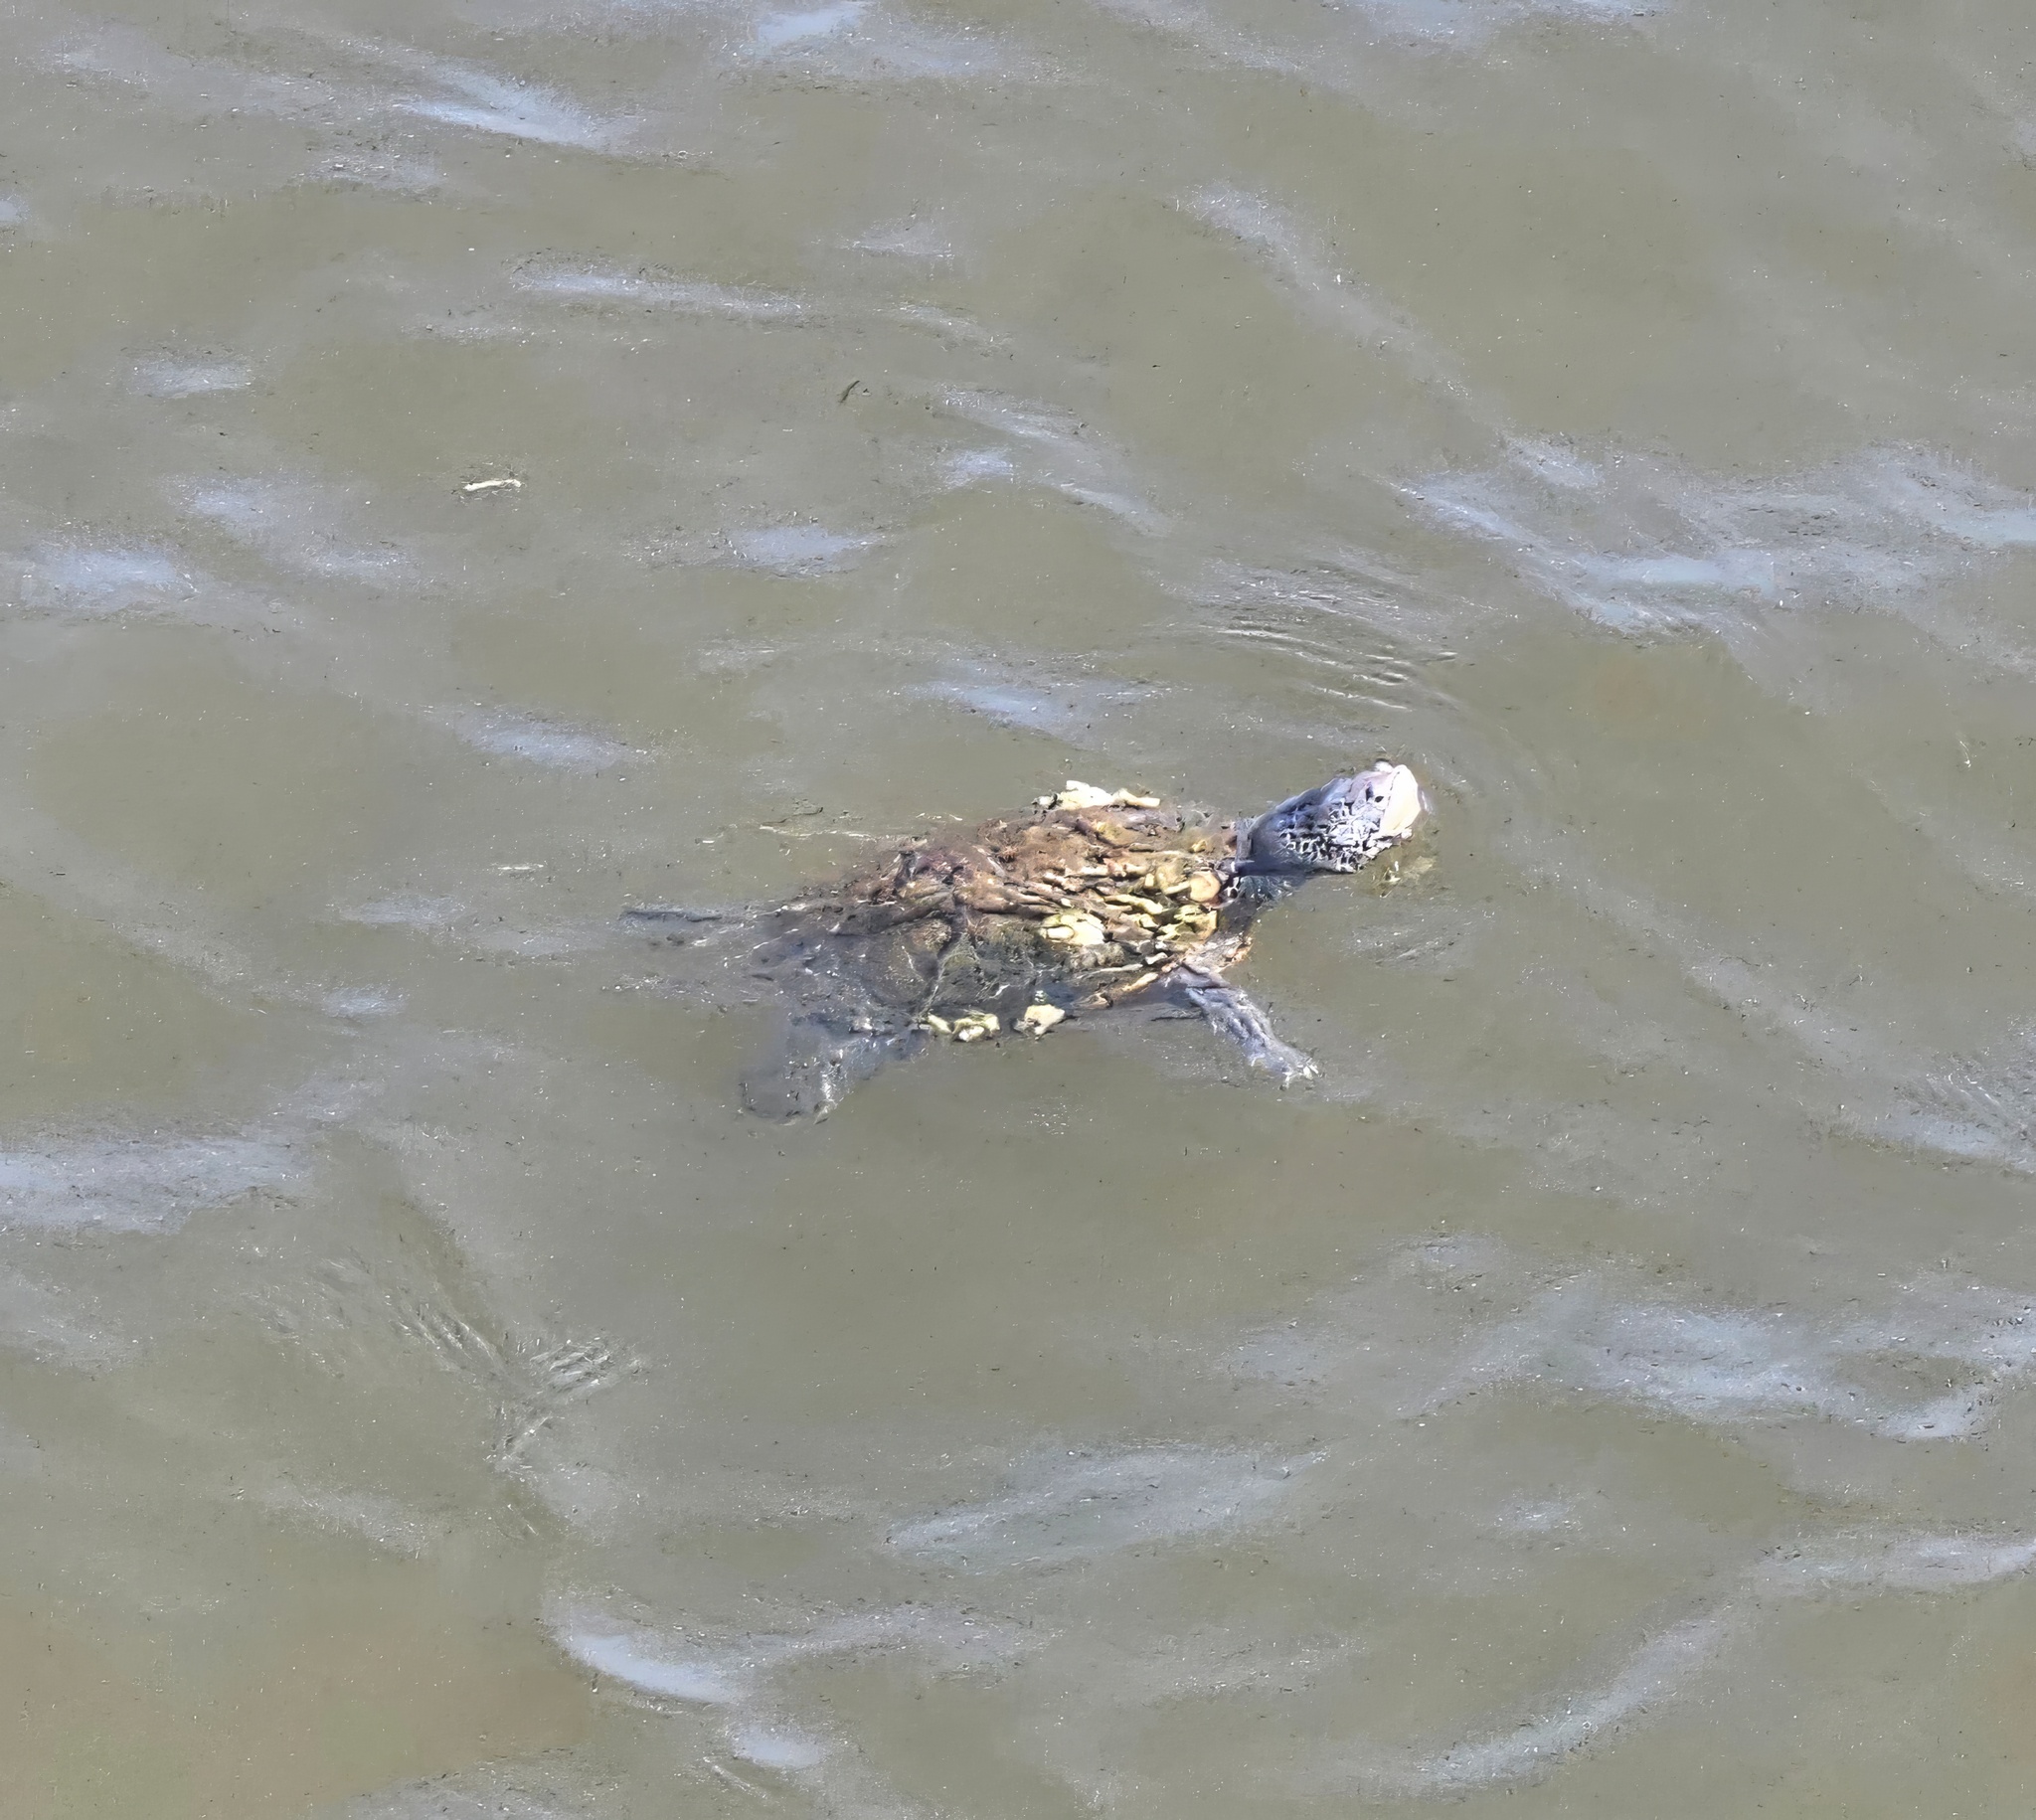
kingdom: Animalia
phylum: Chordata
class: Testudines
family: Emydidae
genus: Malaclemys
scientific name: Malaclemys terrapin
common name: Diamondback terrapin
